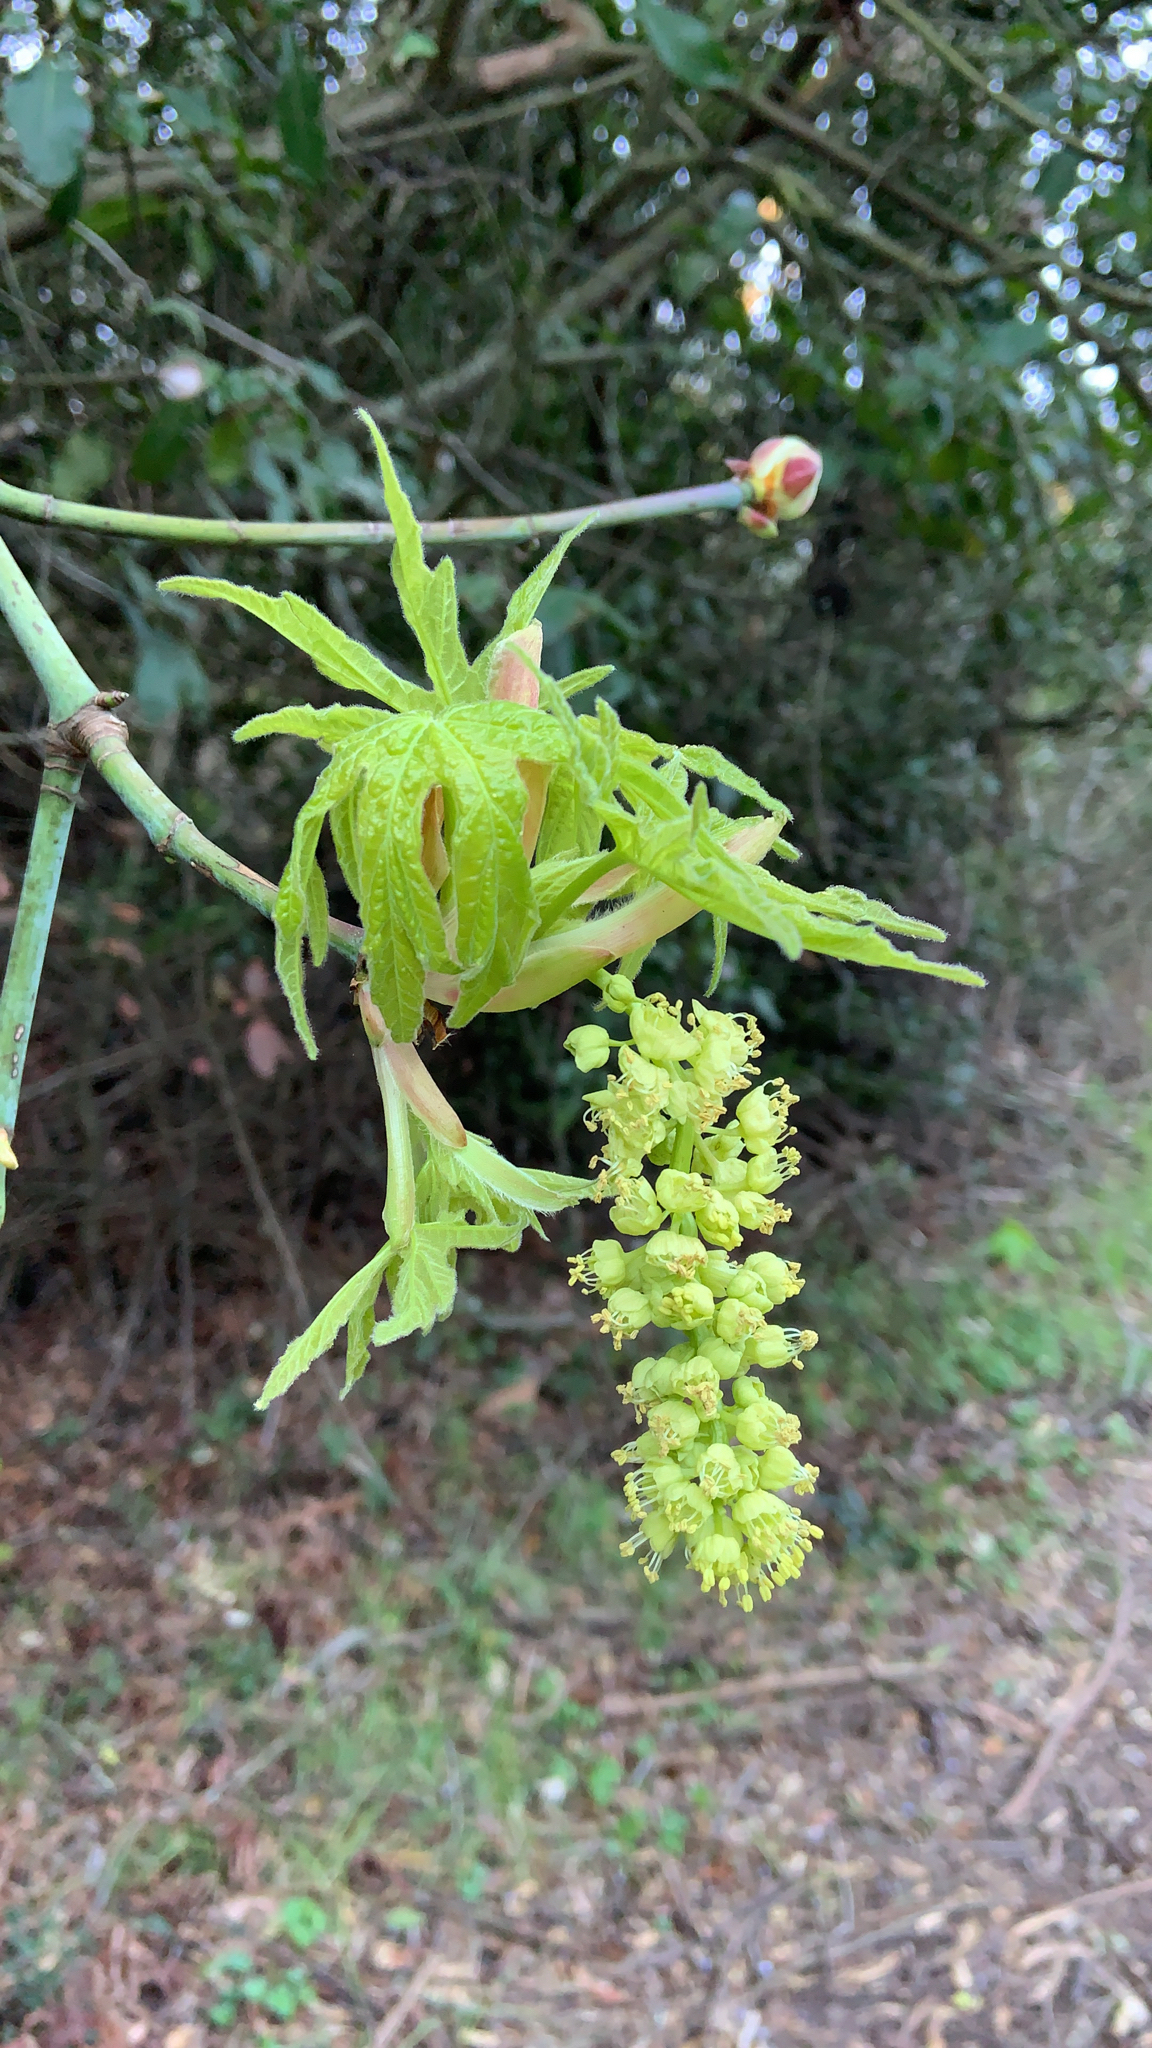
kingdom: Plantae
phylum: Tracheophyta
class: Magnoliopsida
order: Sapindales
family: Sapindaceae
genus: Acer
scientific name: Acer macrophyllum
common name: Oregon maple
